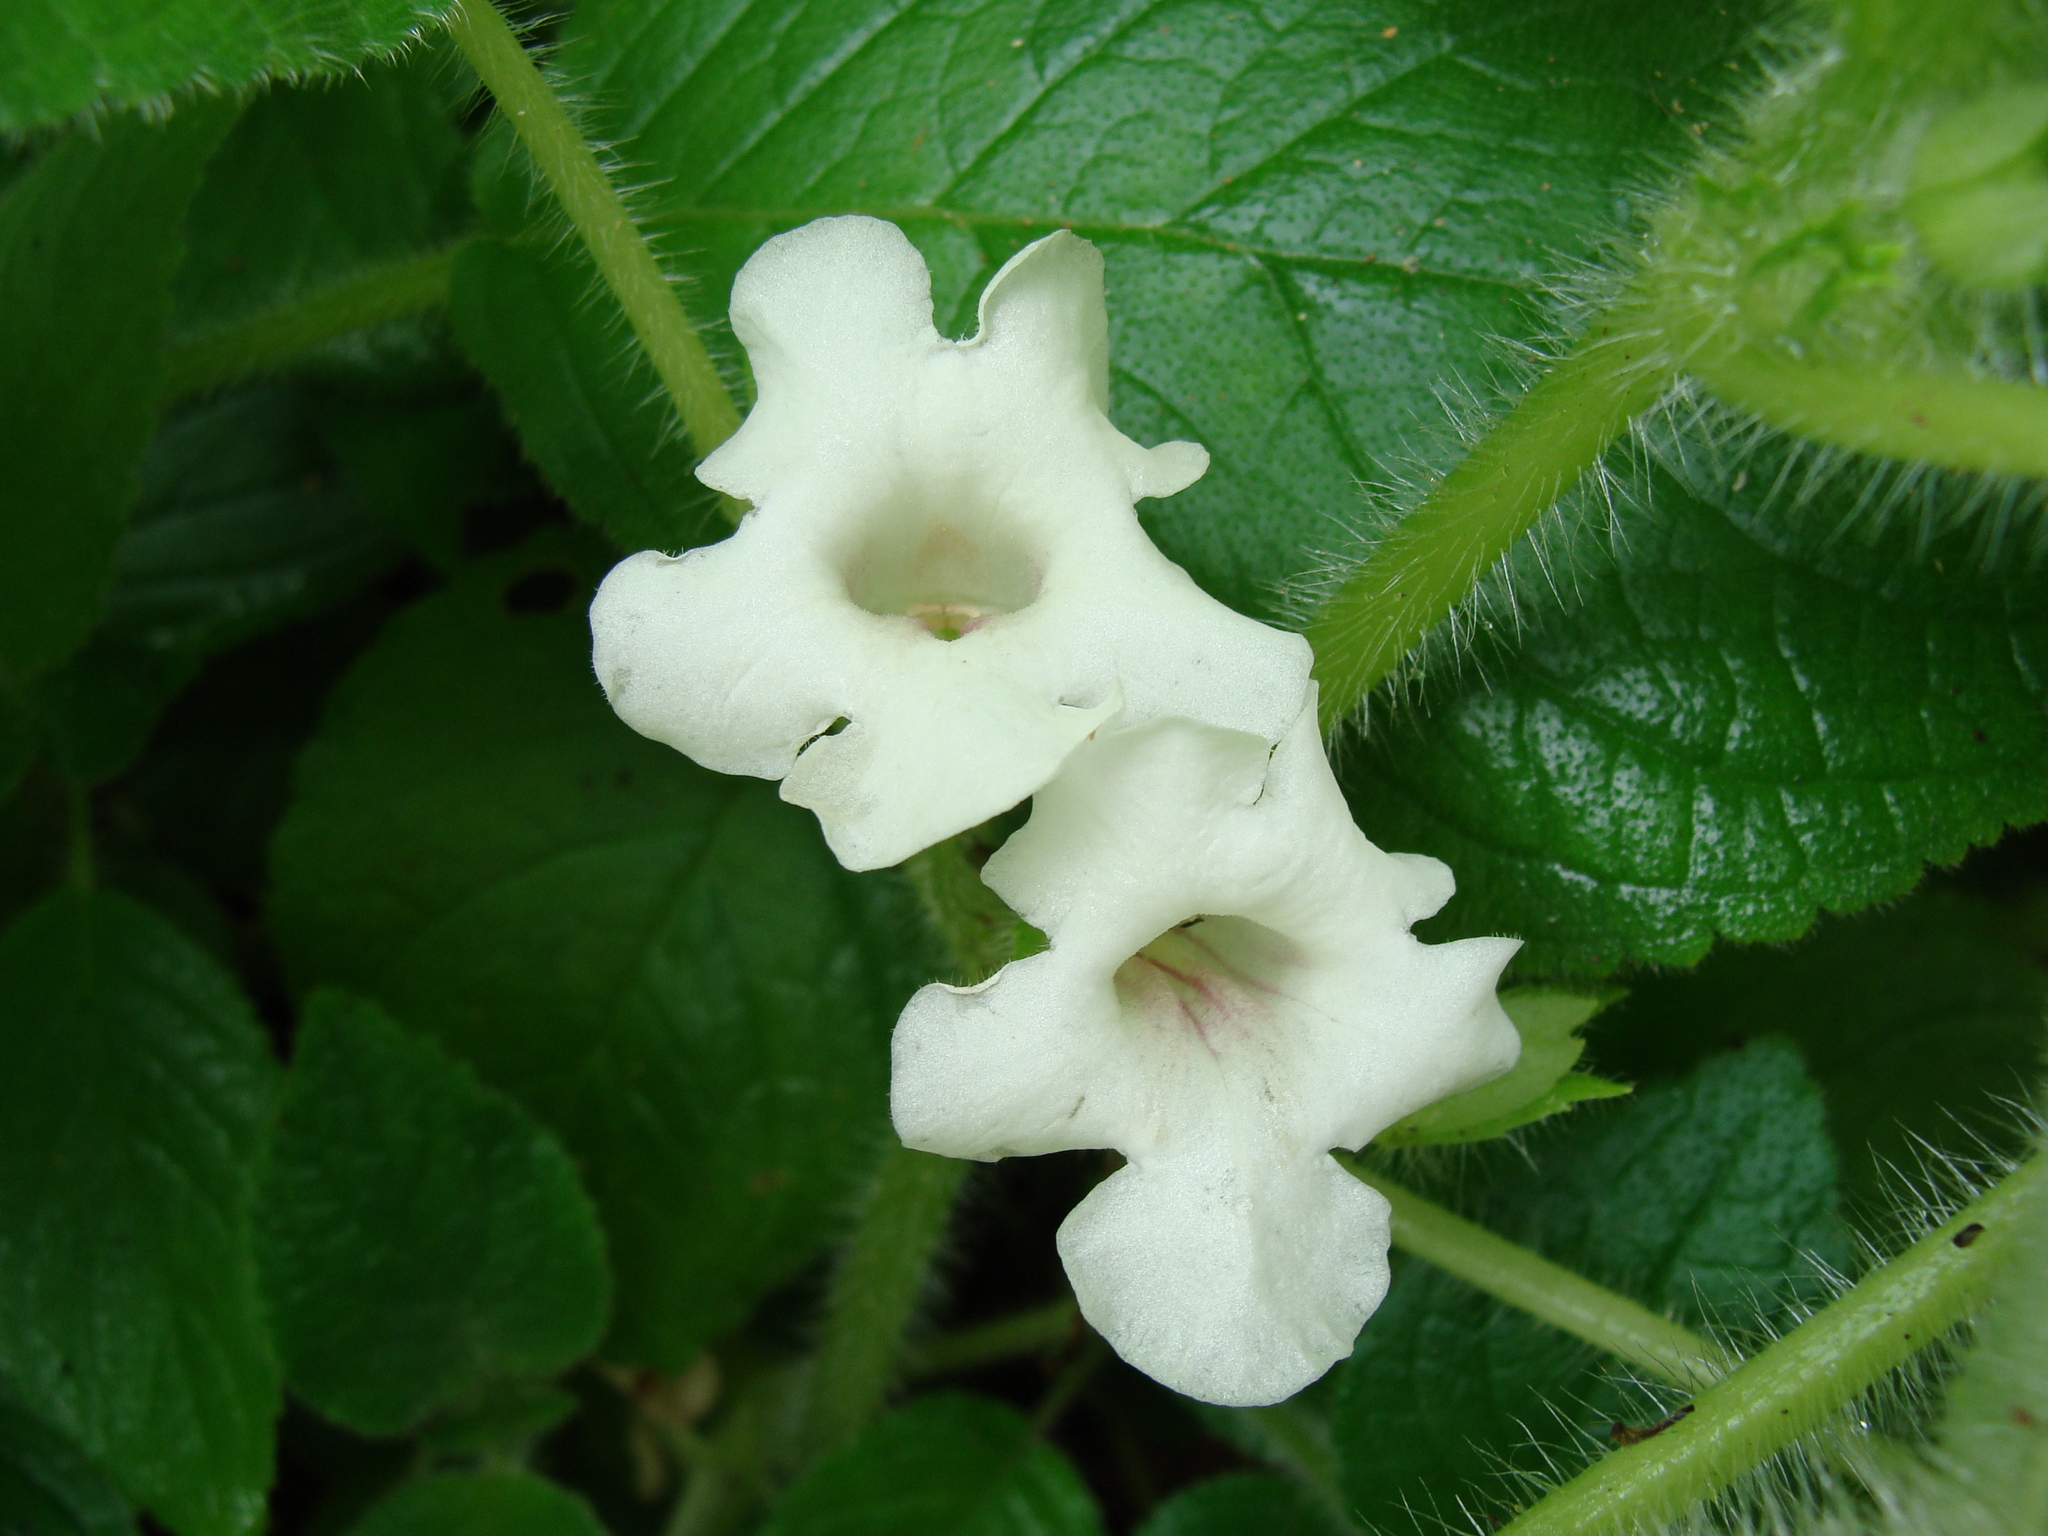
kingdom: Plantae
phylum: Tracheophyta
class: Magnoliopsida
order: Lamiales
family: Gesneriaceae
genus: Chrysothemis
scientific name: Chrysothemis panamensis
